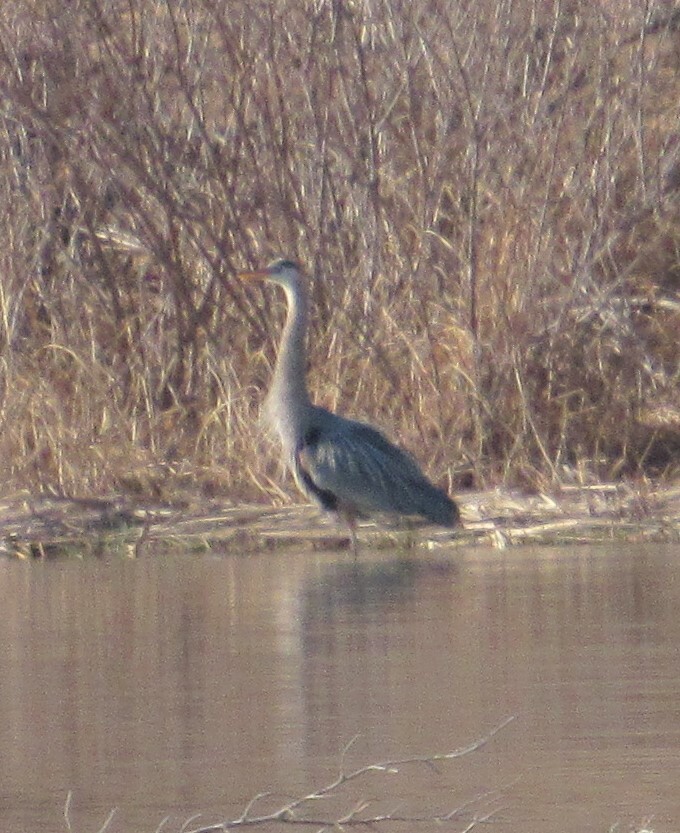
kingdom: Animalia
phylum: Chordata
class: Aves
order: Pelecaniformes
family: Ardeidae
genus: Ardea
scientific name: Ardea herodias
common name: Great blue heron
